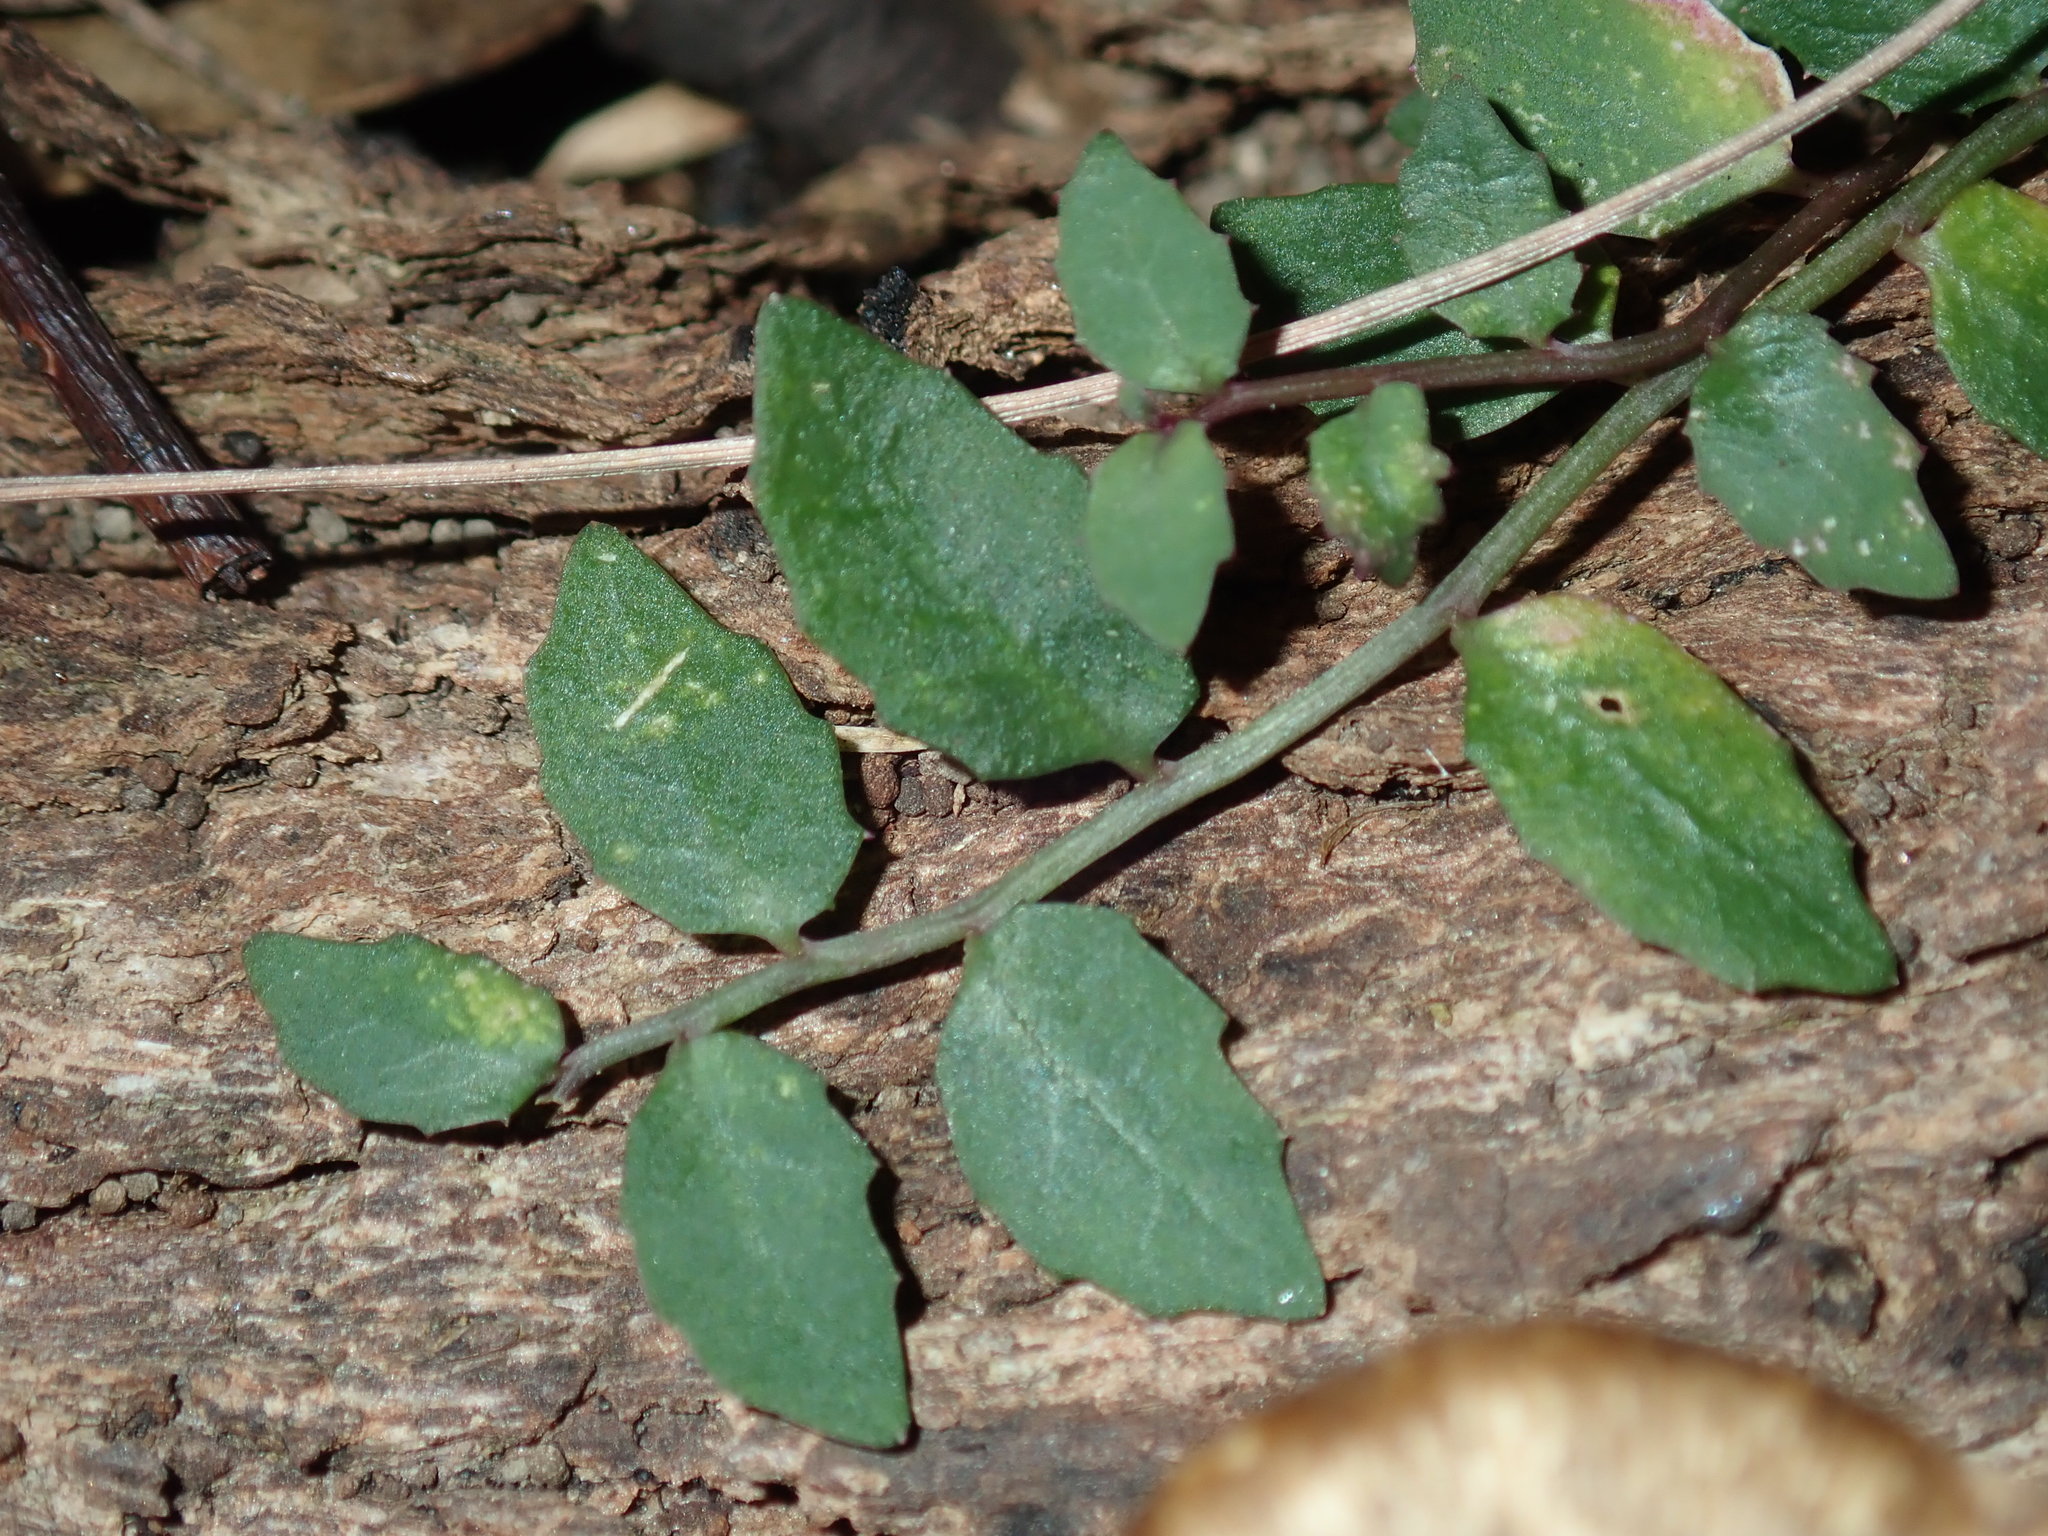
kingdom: Plantae
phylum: Tracheophyta
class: Magnoliopsida
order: Asterales
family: Campanulaceae
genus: Lobelia
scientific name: Lobelia purpurascens
